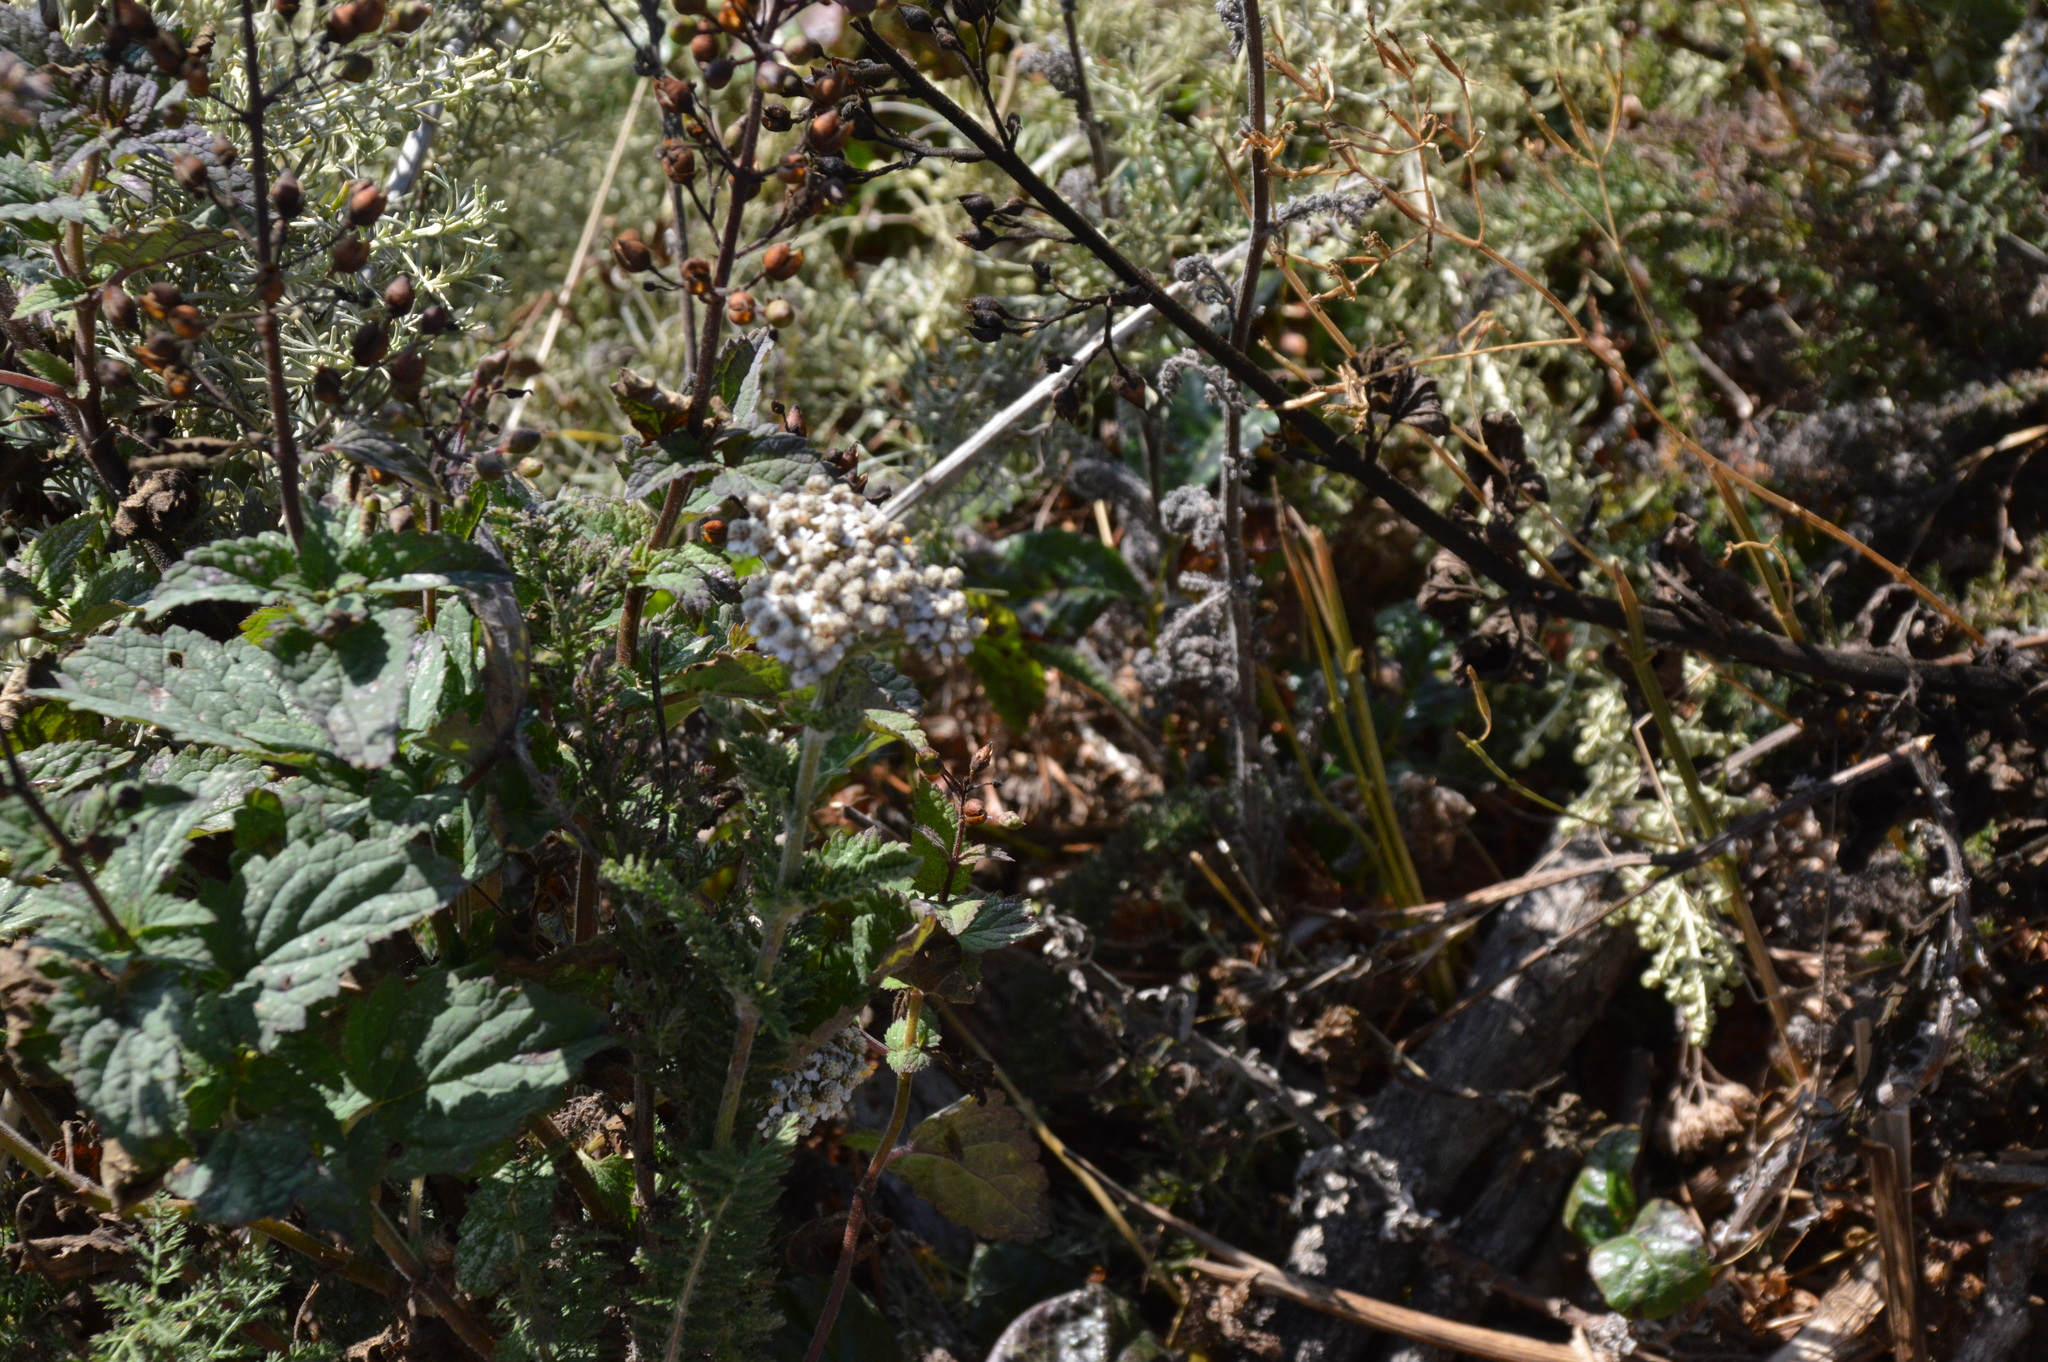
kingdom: Plantae
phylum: Tracheophyta
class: Magnoliopsida
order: Asterales
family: Asteraceae
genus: Achillea
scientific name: Achillea millefolium
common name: Yarrow
